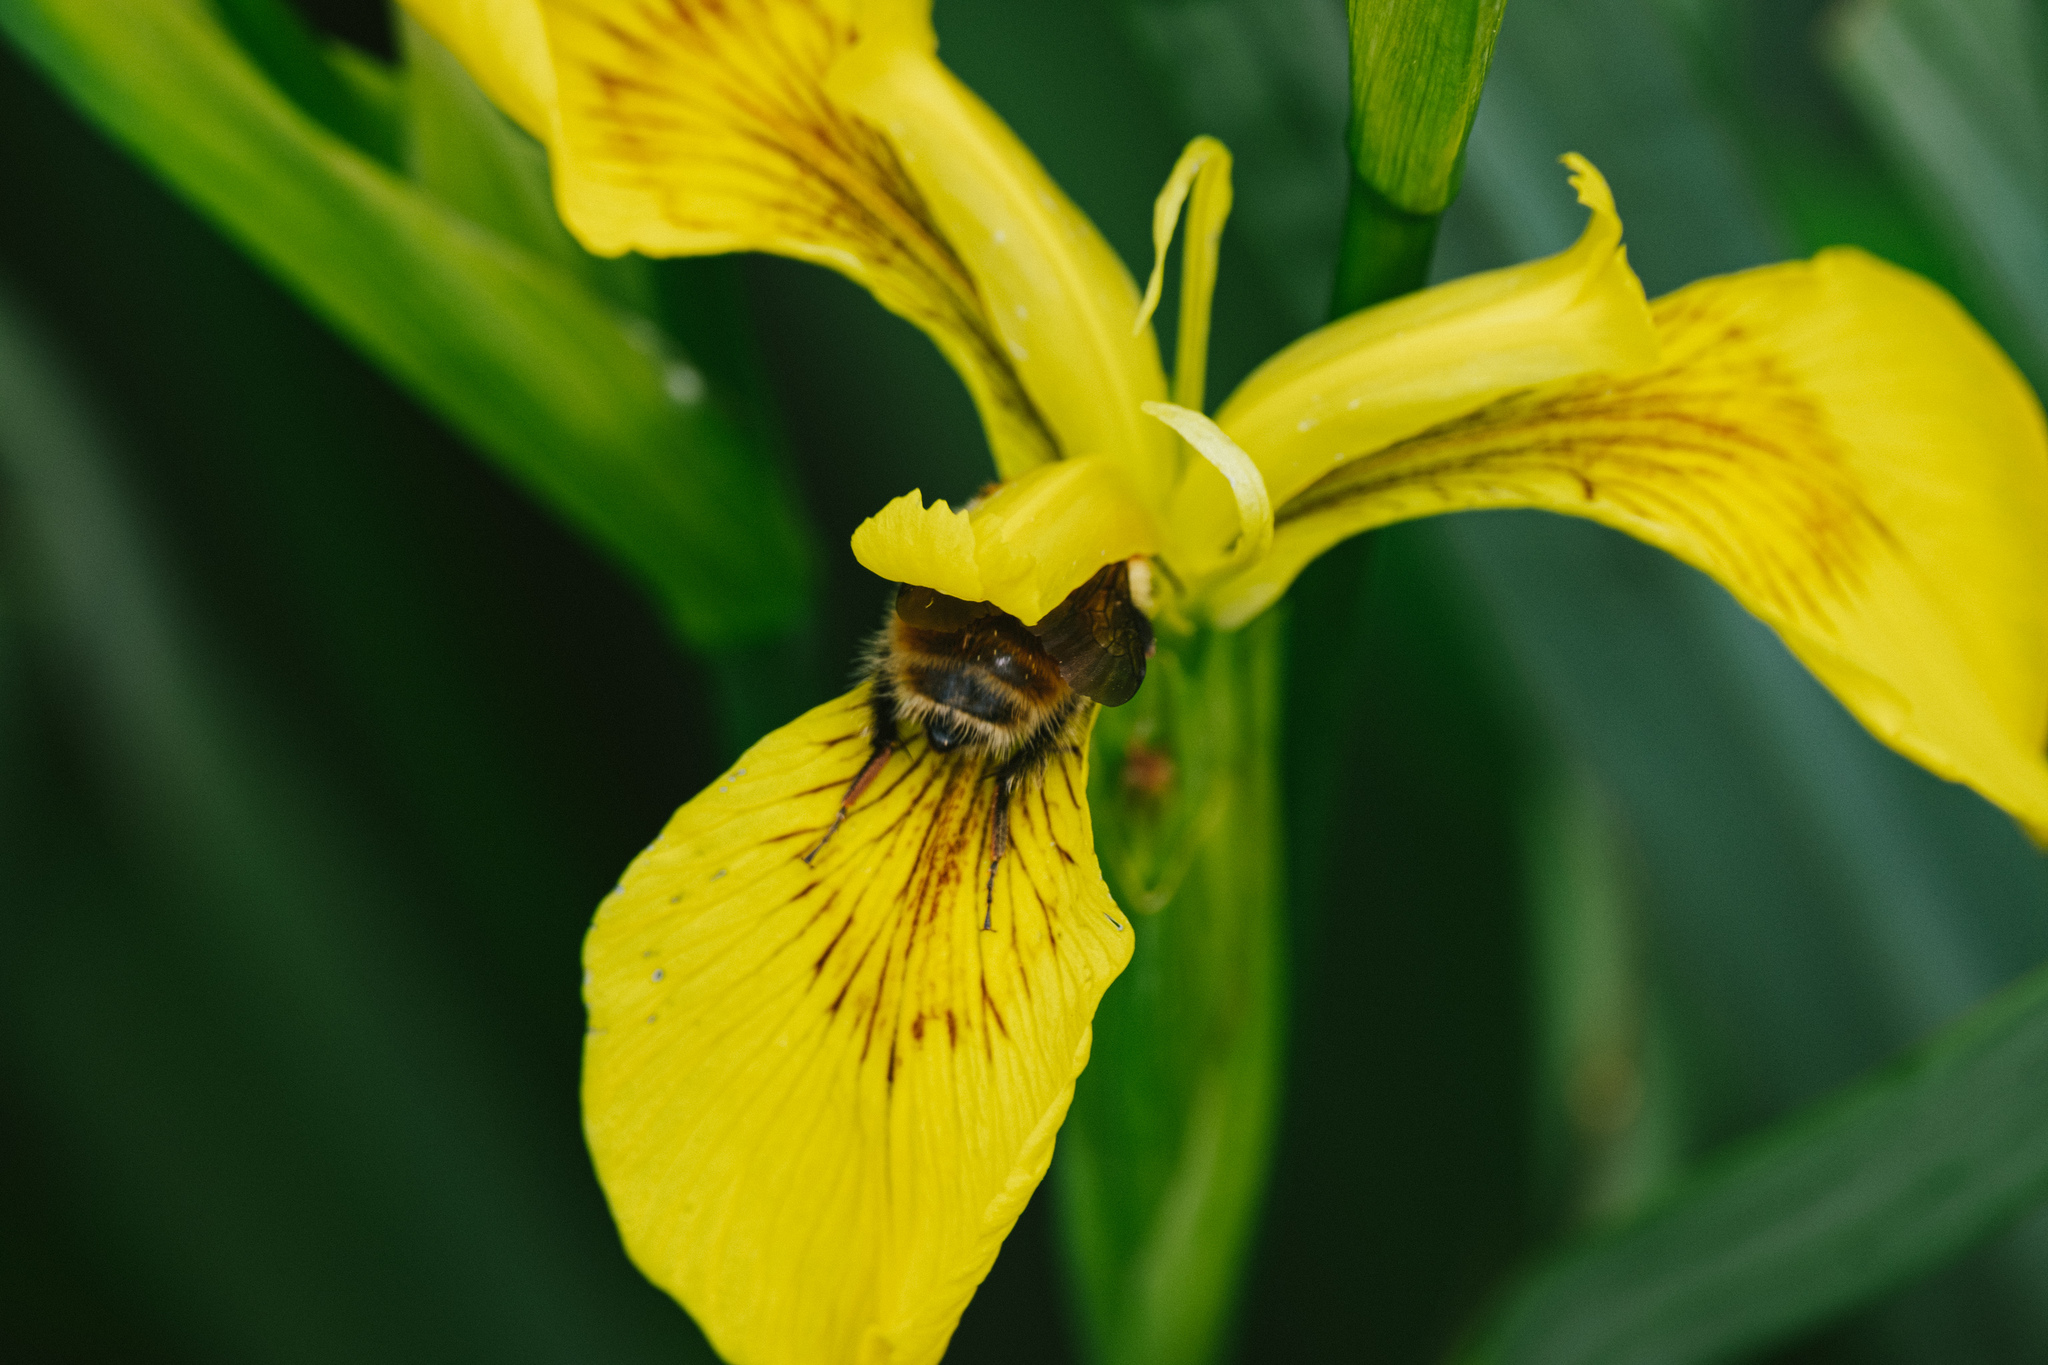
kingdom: Plantae
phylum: Tracheophyta
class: Liliopsida
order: Asparagales
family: Iridaceae
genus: Iris
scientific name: Iris pseudacorus
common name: Yellow flag
